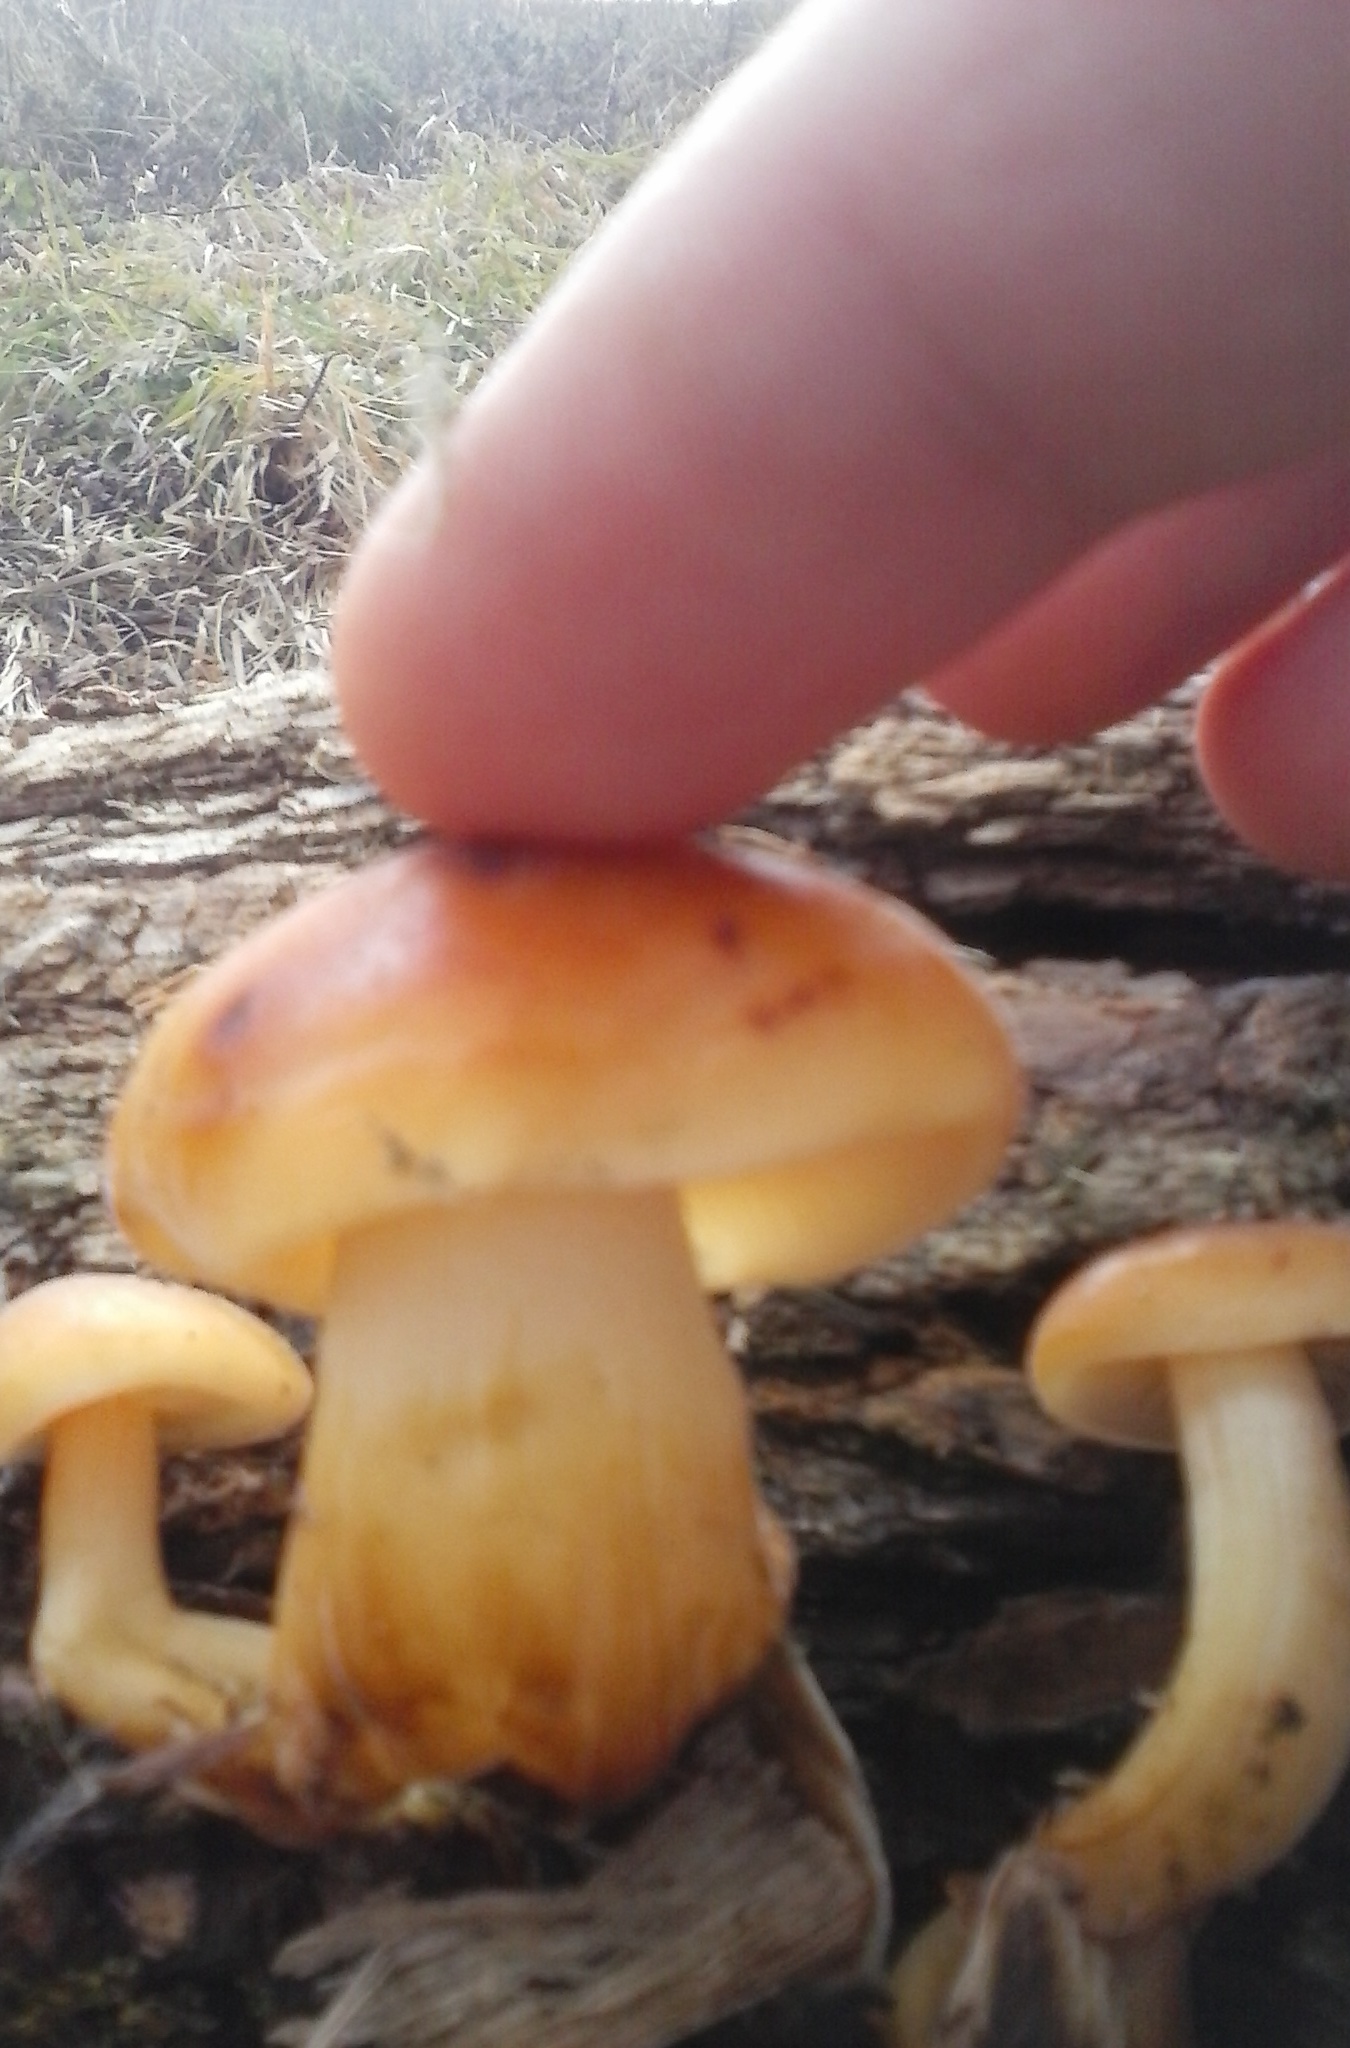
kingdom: Fungi
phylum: Basidiomycota
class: Agaricomycetes
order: Agaricales
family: Physalacriaceae
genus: Flammulina
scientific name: Flammulina velutipes
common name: Velvet shank
